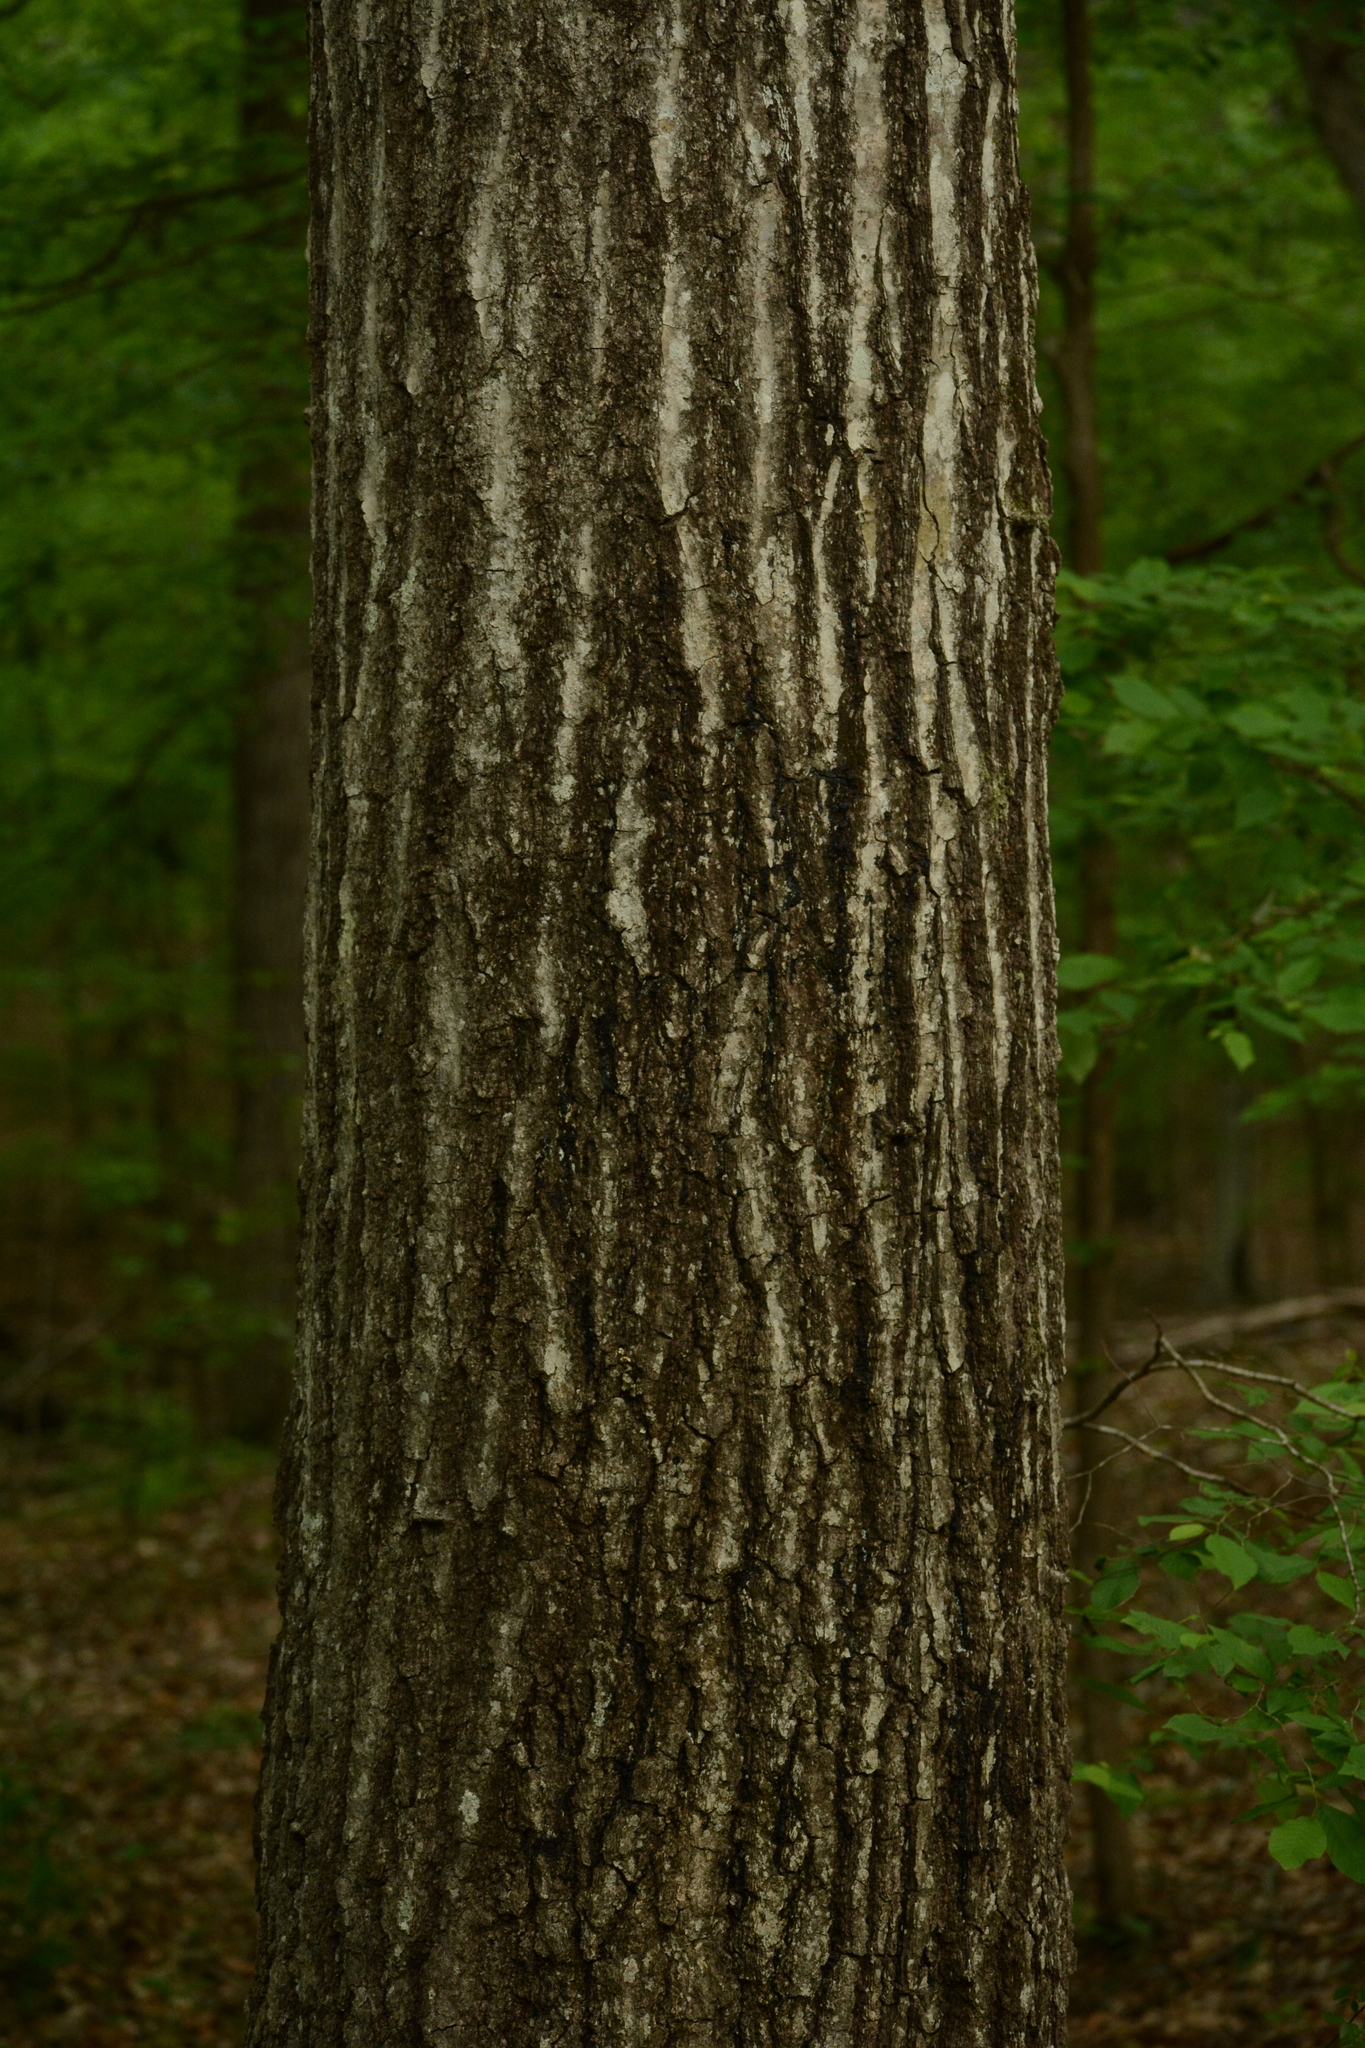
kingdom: Plantae
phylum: Tracheophyta
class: Magnoliopsida
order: Fagales
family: Fagaceae
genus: Quercus
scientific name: Quercus rubra
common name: Red oak
